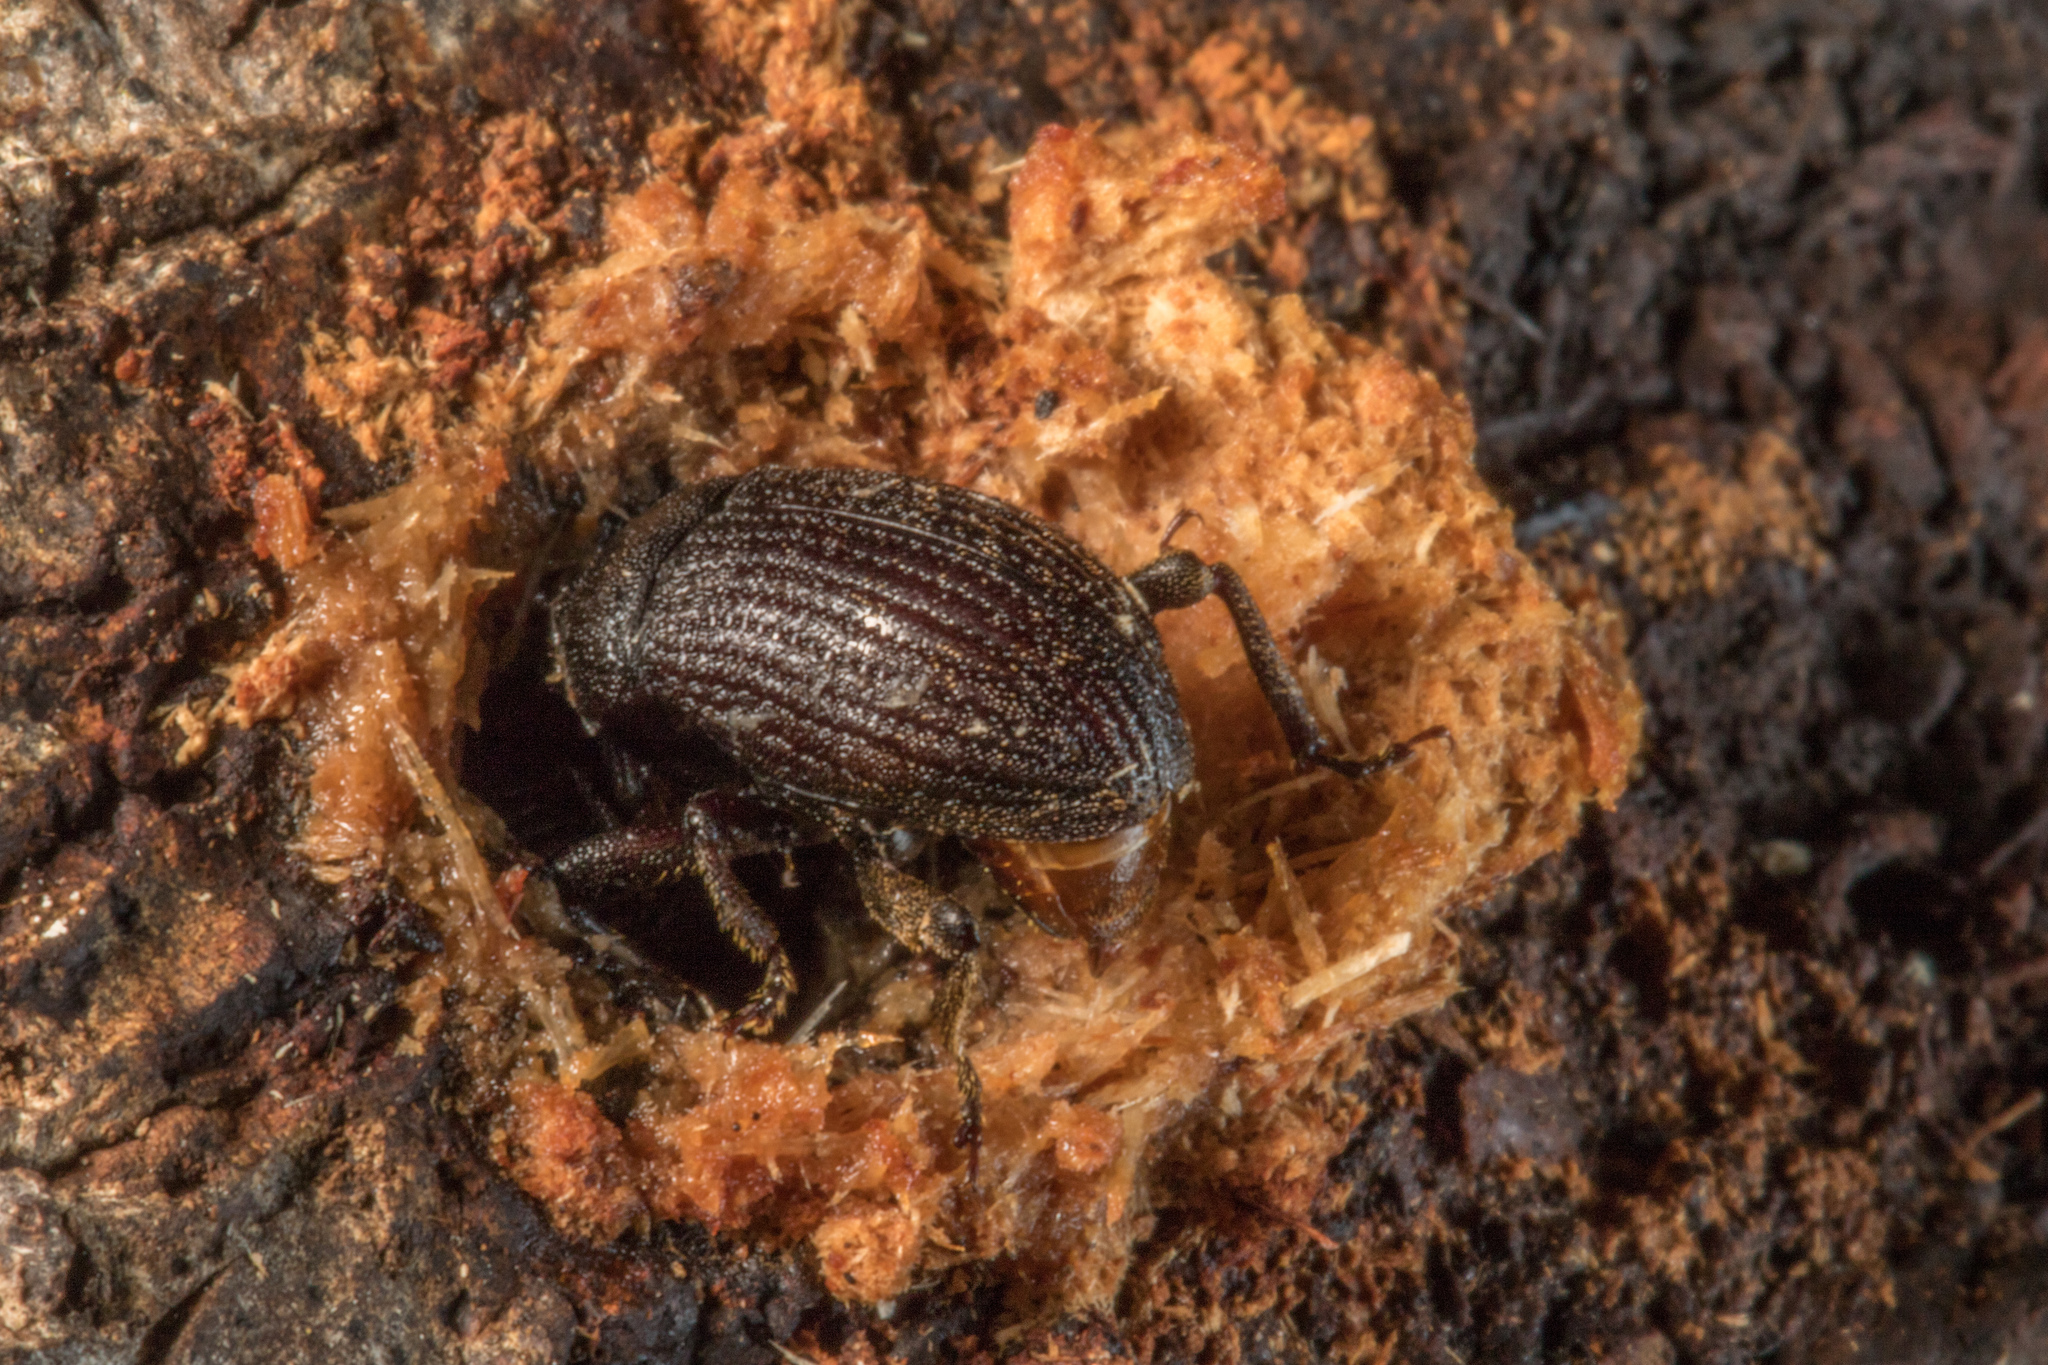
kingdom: Animalia
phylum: Arthropoda
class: Insecta
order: Coleoptera
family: Curculionidae
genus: Homoreda
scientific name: Homoreda
